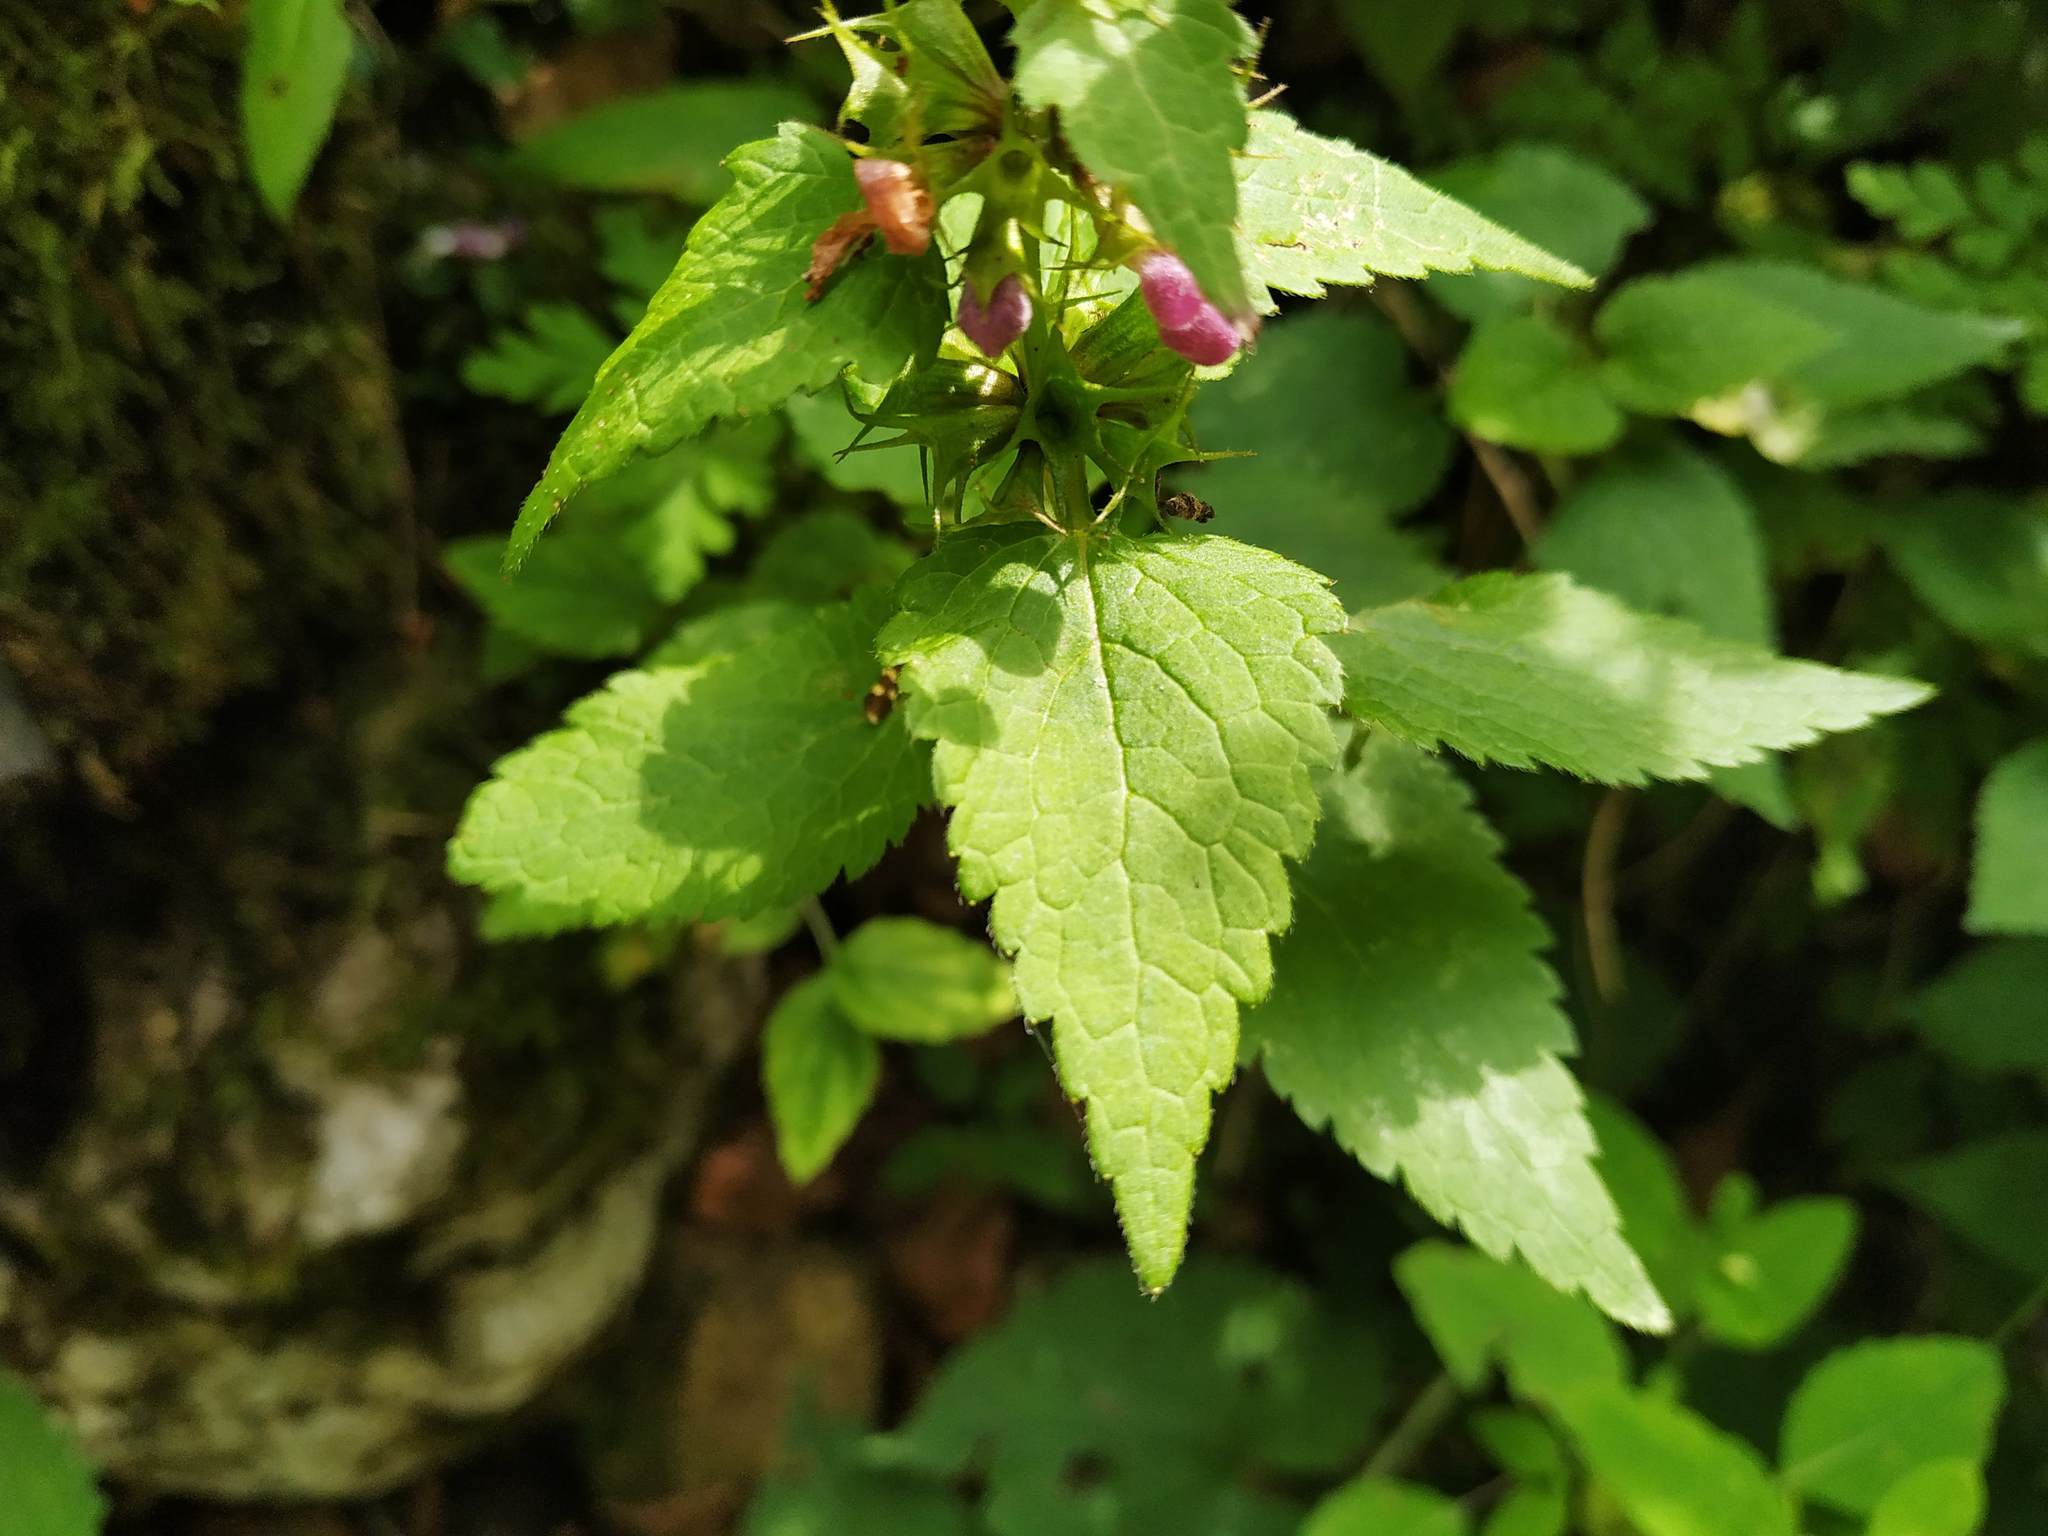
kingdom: Plantae
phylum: Tracheophyta
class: Magnoliopsida
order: Lamiales
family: Lamiaceae
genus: Lamium
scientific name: Lamium maculatum
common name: Spotted dead-nettle
